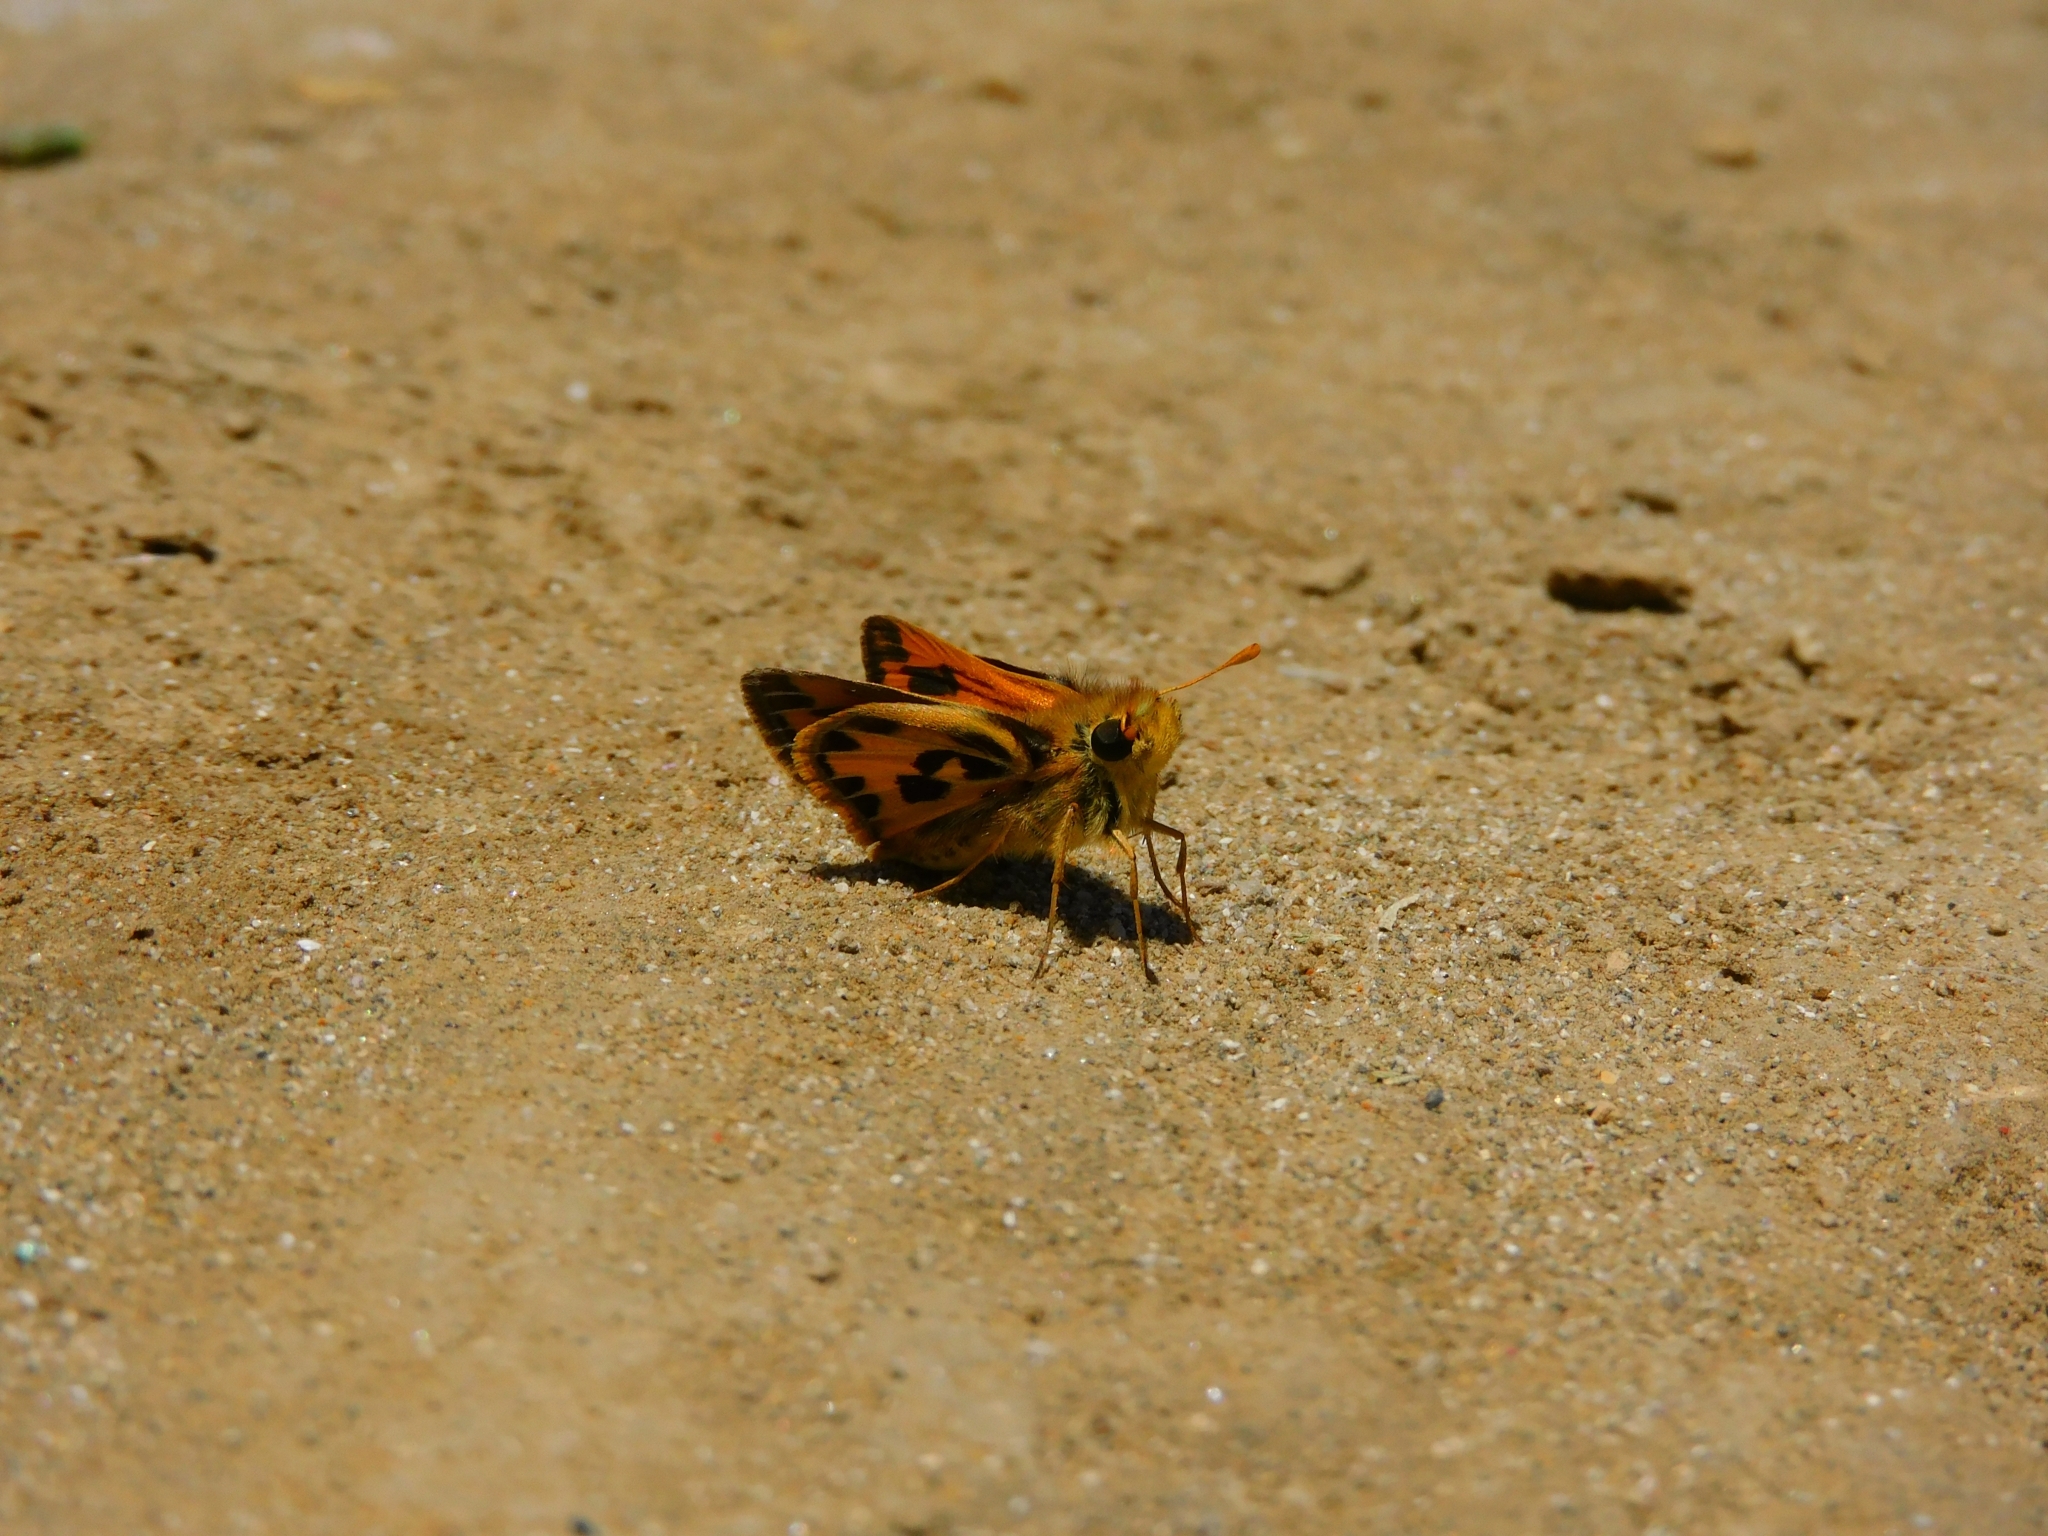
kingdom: Animalia
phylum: Arthropoda
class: Insecta
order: Lepidoptera
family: Hesperiidae
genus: Hylephila
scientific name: Hylephila fasciolata
